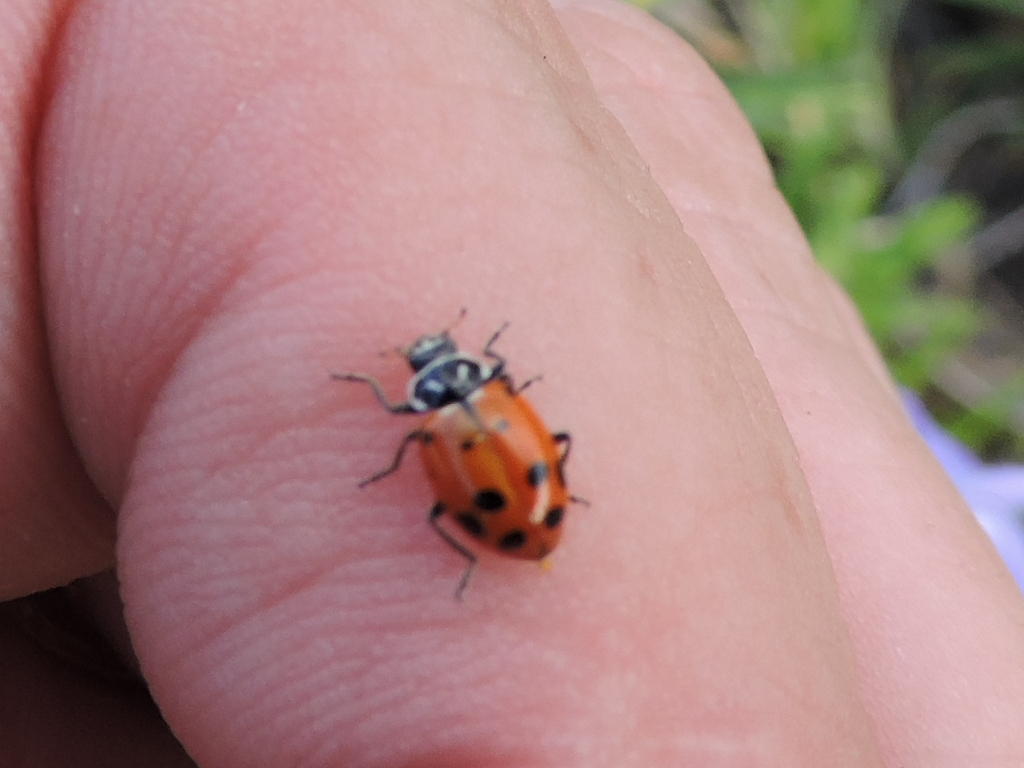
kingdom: Animalia
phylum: Arthropoda
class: Insecta
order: Coleoptera
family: Coccinellidae
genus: Hippodamia
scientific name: Hippodamia convergens
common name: Convergent lady beetle
